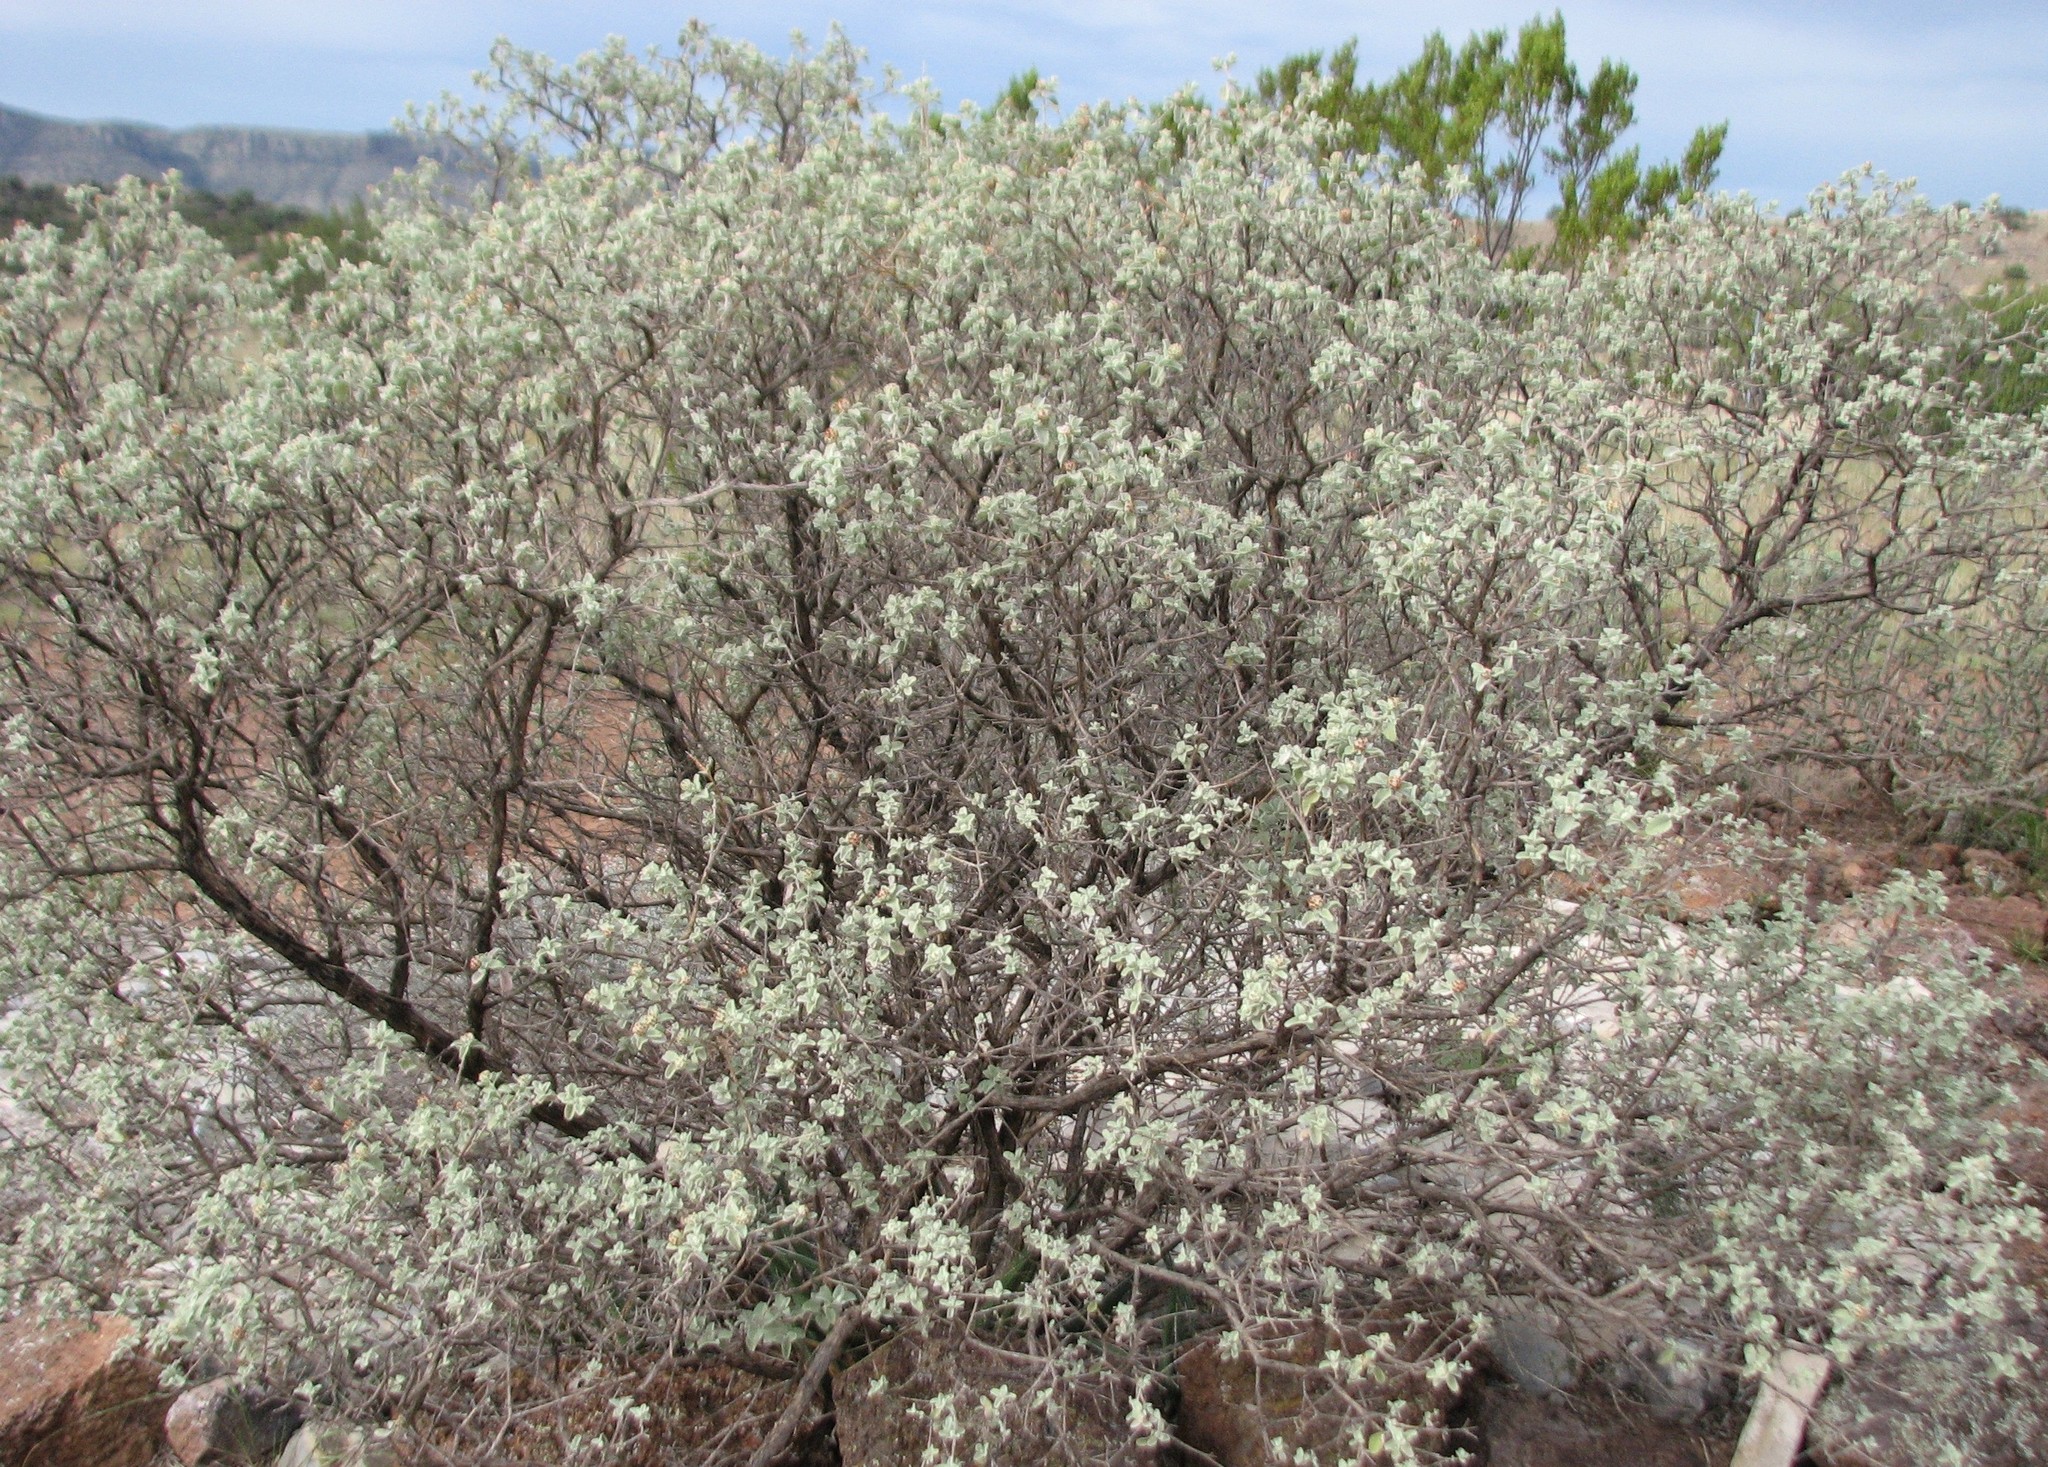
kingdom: Plantae
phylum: Tracheophyta
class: Magnoliopsida
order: Lamiales
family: Scrophulariaceae
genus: Buddleja
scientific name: Buddleja marrubiifolia
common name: Woolly butterfly-bush
